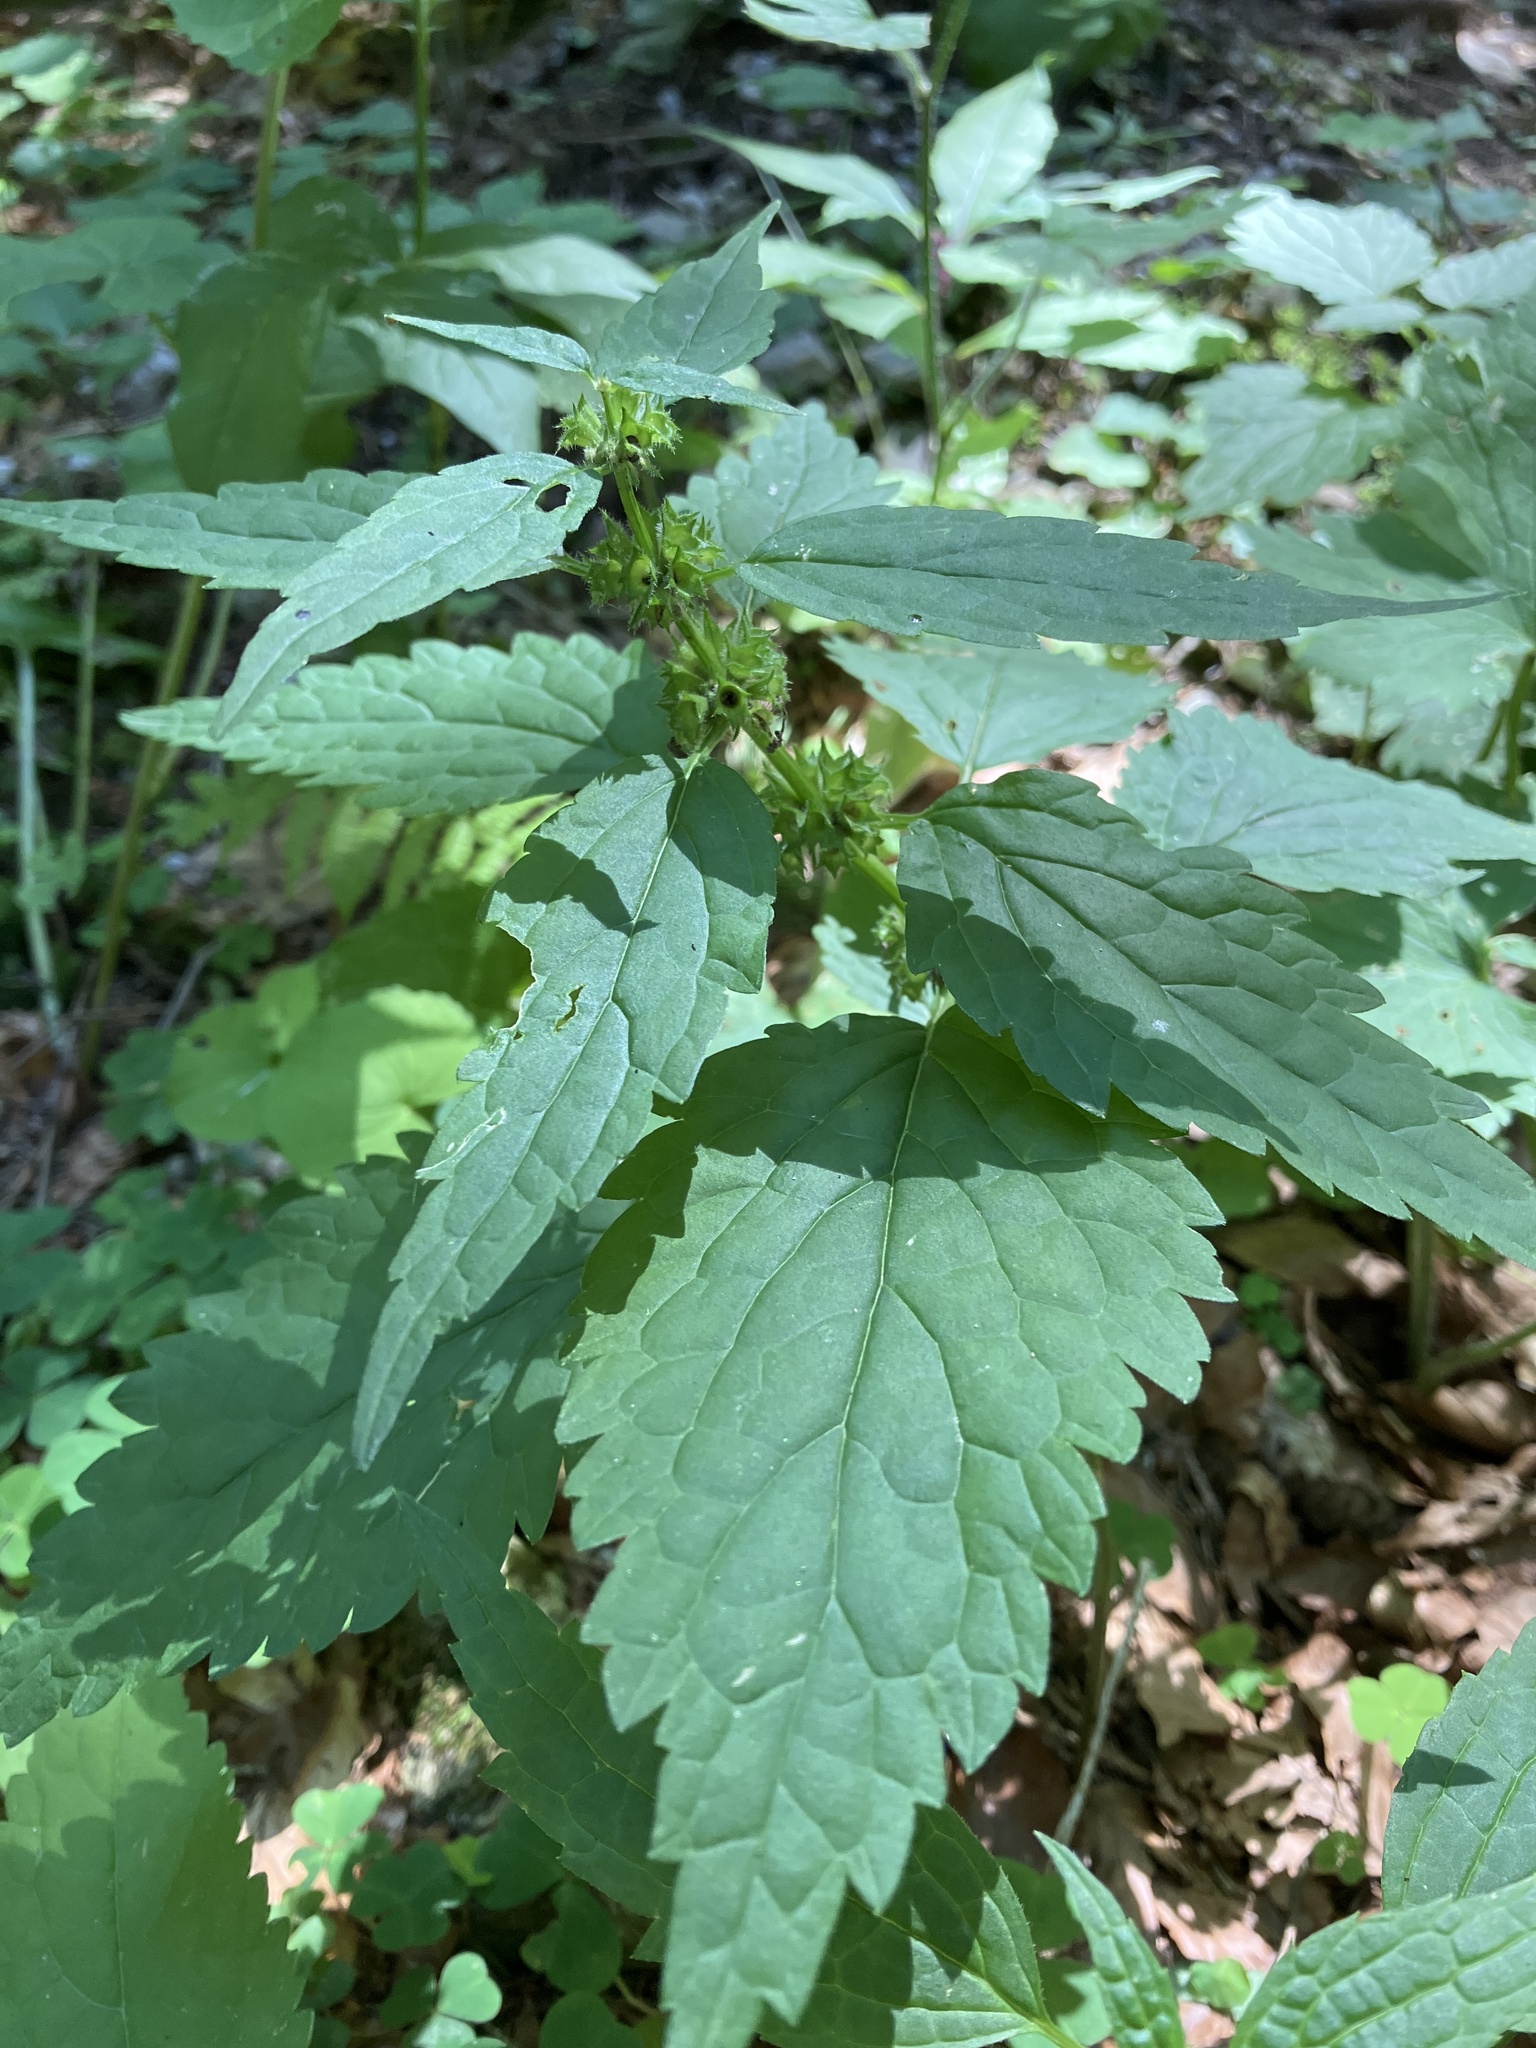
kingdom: Plantae
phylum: Tracheophyta
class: Magnoliopsida
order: Lamiales
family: Lamiaceae
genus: Lamium
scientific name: Lamium galeobdolon
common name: Yellow archangel
